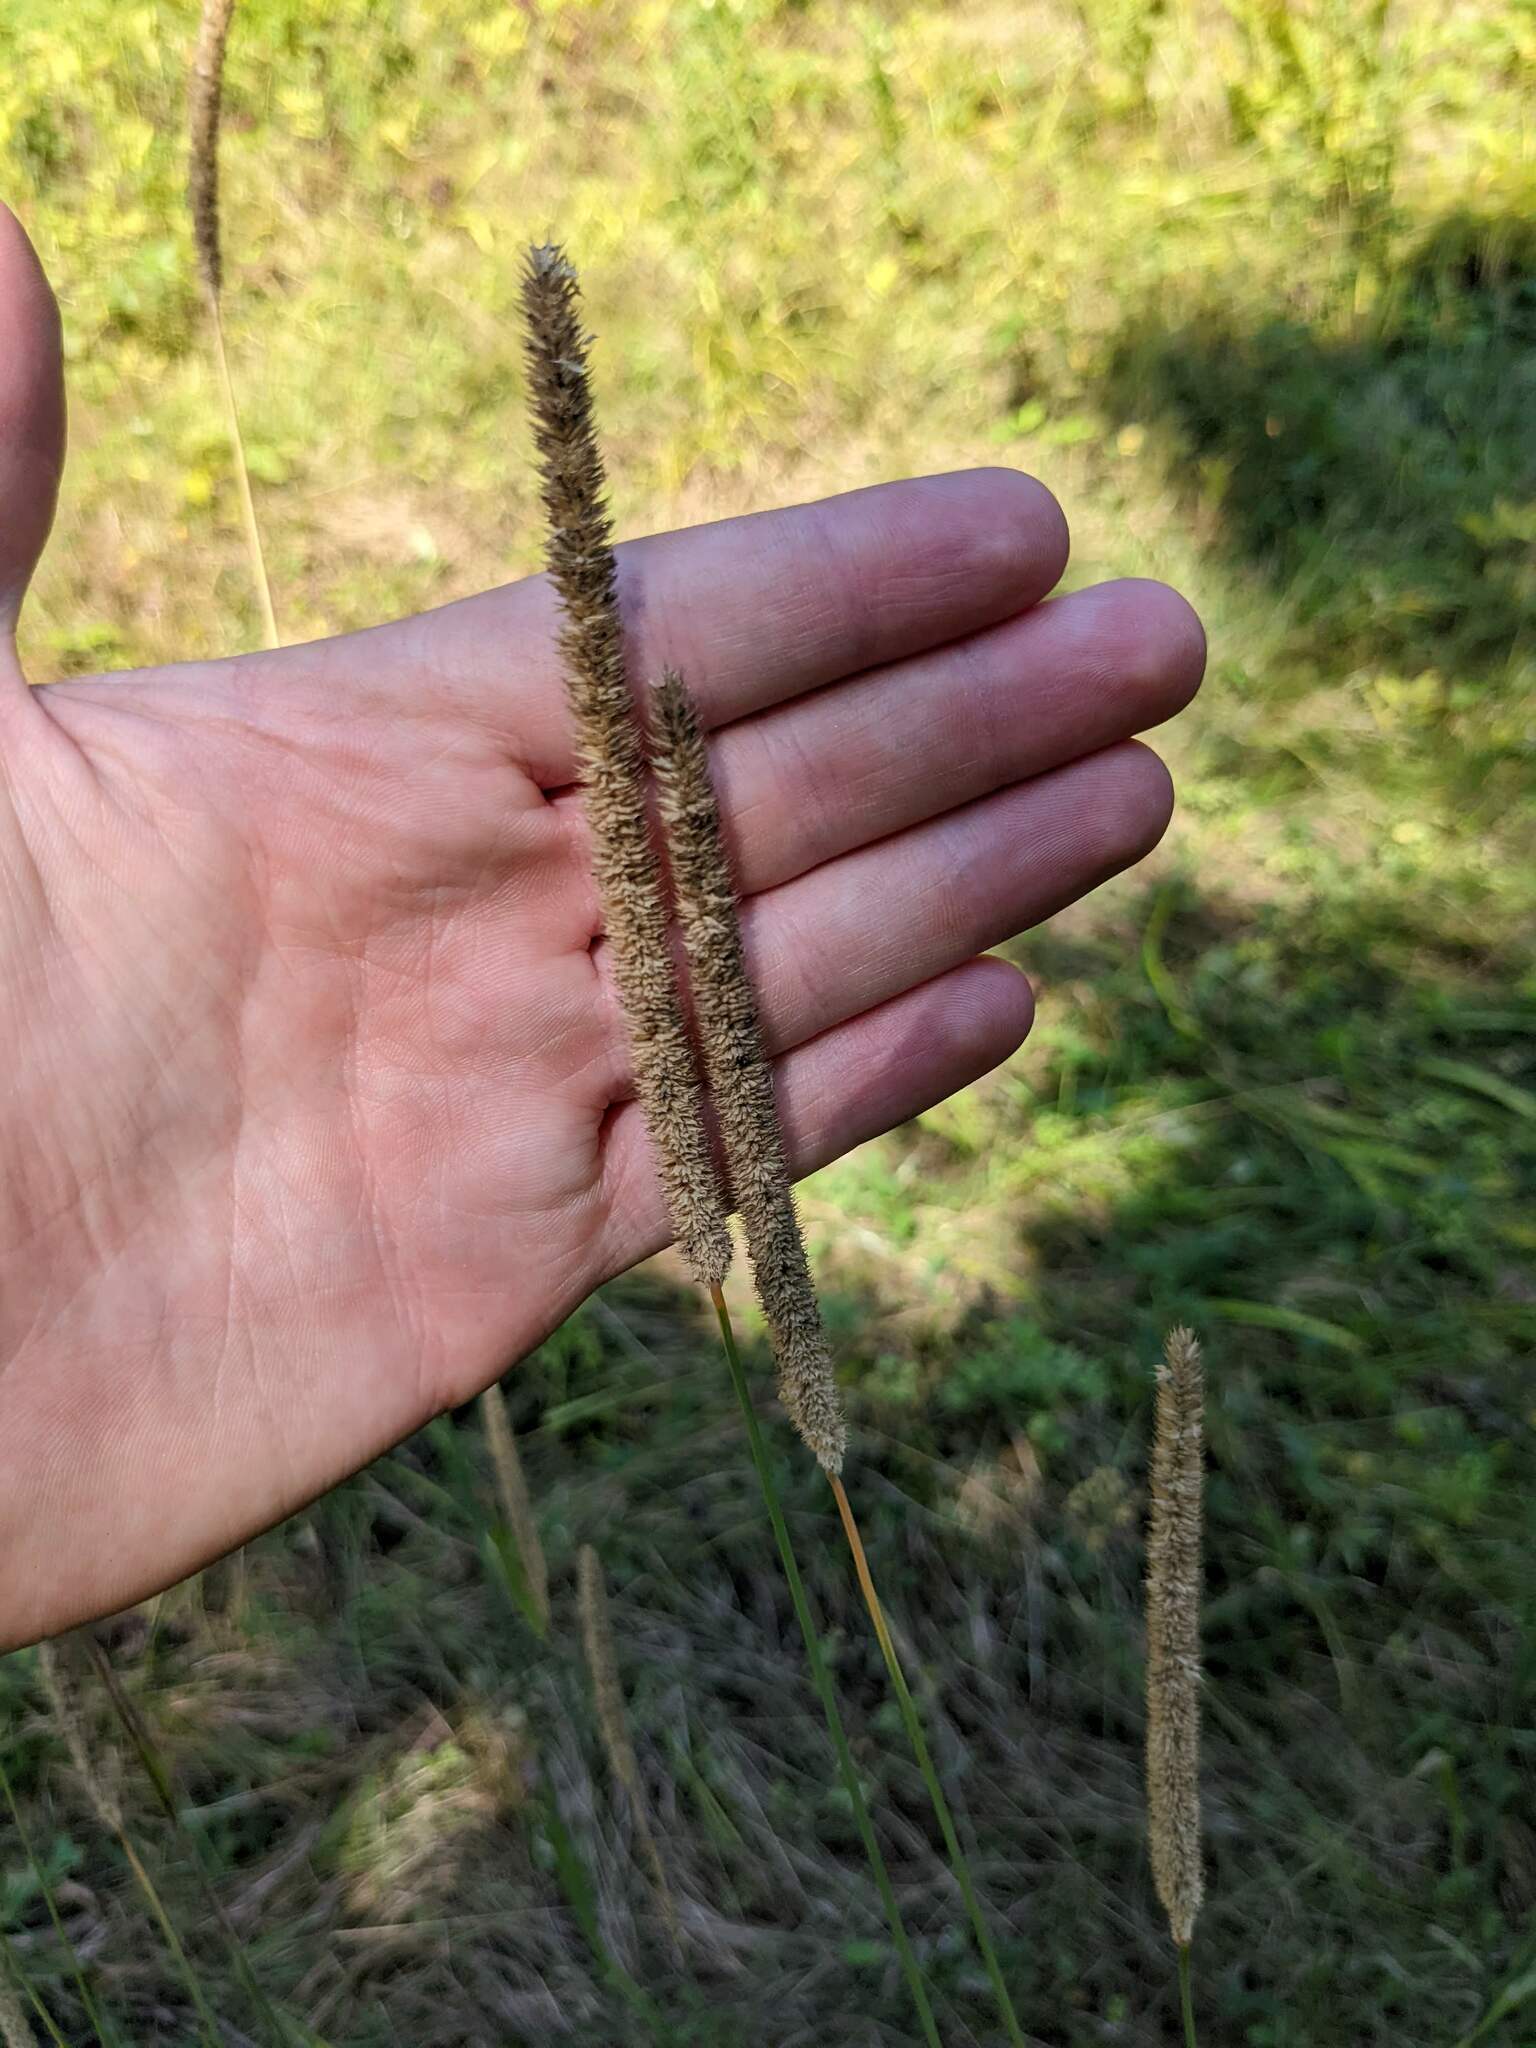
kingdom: Plantae
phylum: Tracheophyta
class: Liliopsida
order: Poales
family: Poaceae
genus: Phleum
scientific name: Phleum pratense
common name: Timothy grass
